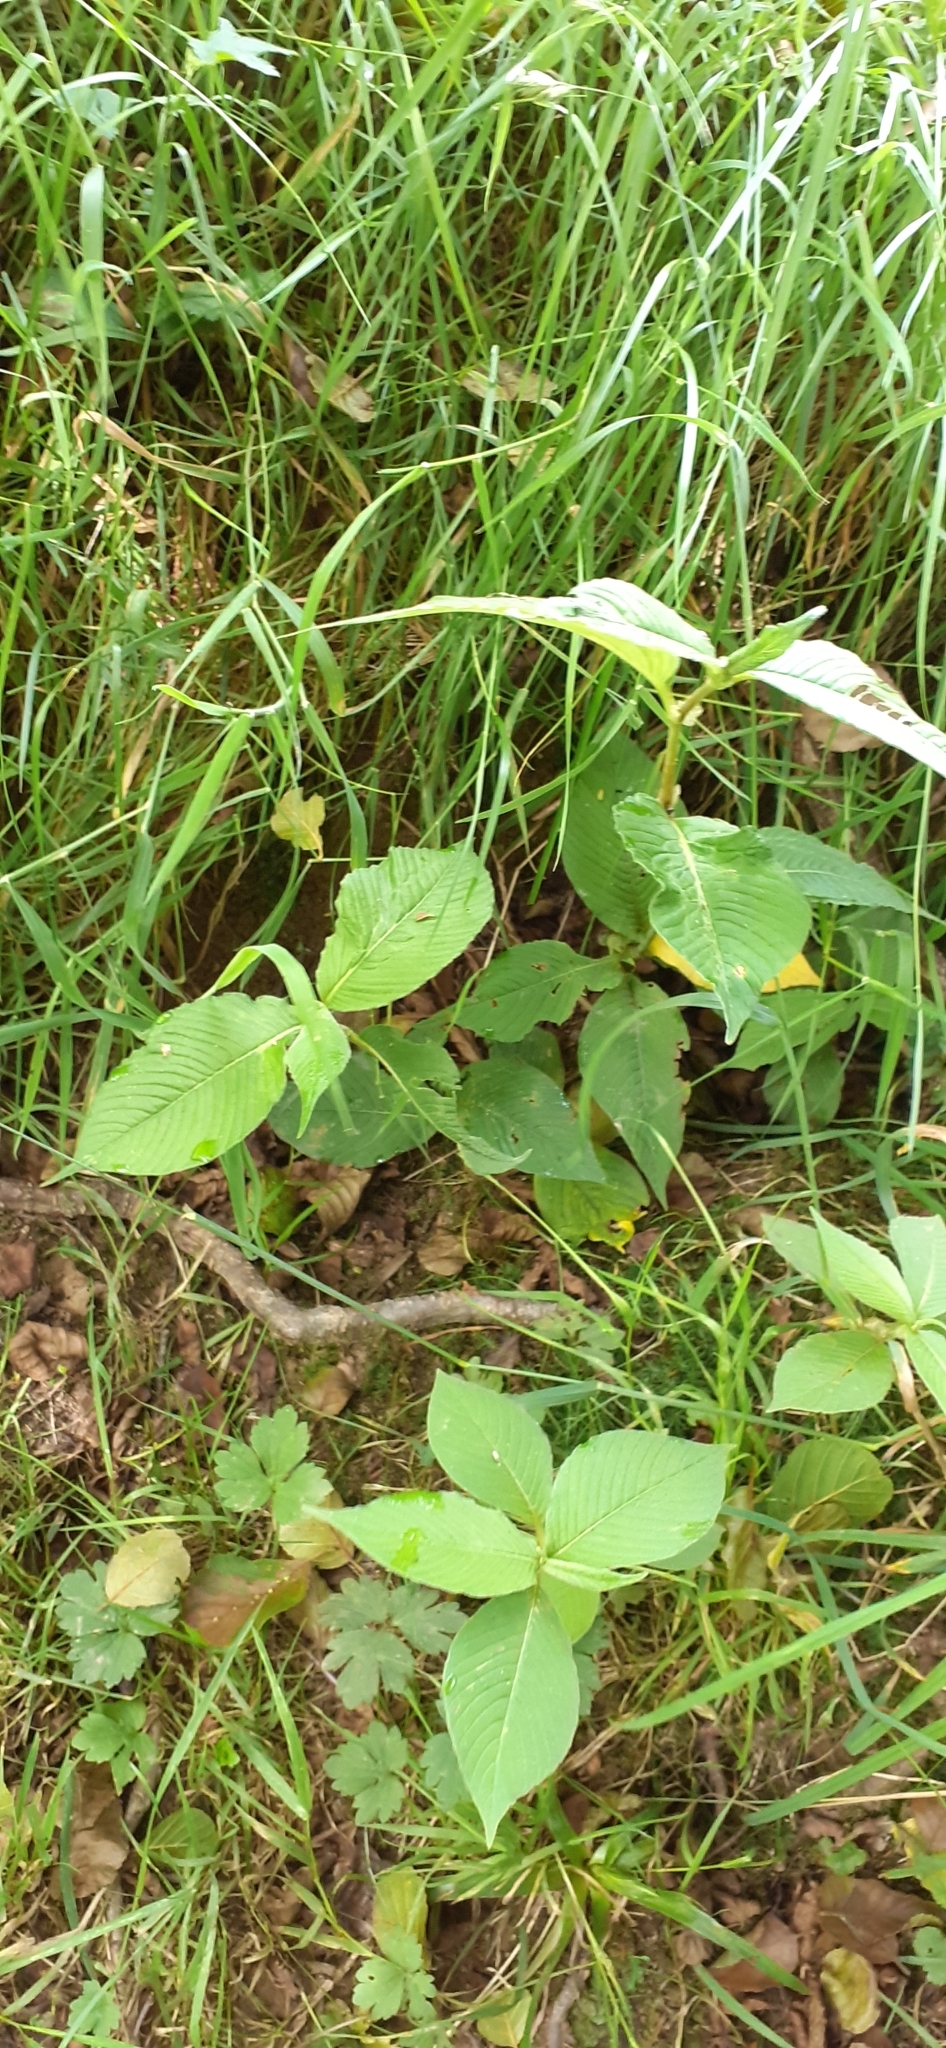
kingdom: Plantae
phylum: Tracheophyta
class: Magnoliopsida
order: Caryophyllales
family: Polygonaceae
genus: Koenigia
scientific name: Koenigia campanulata
